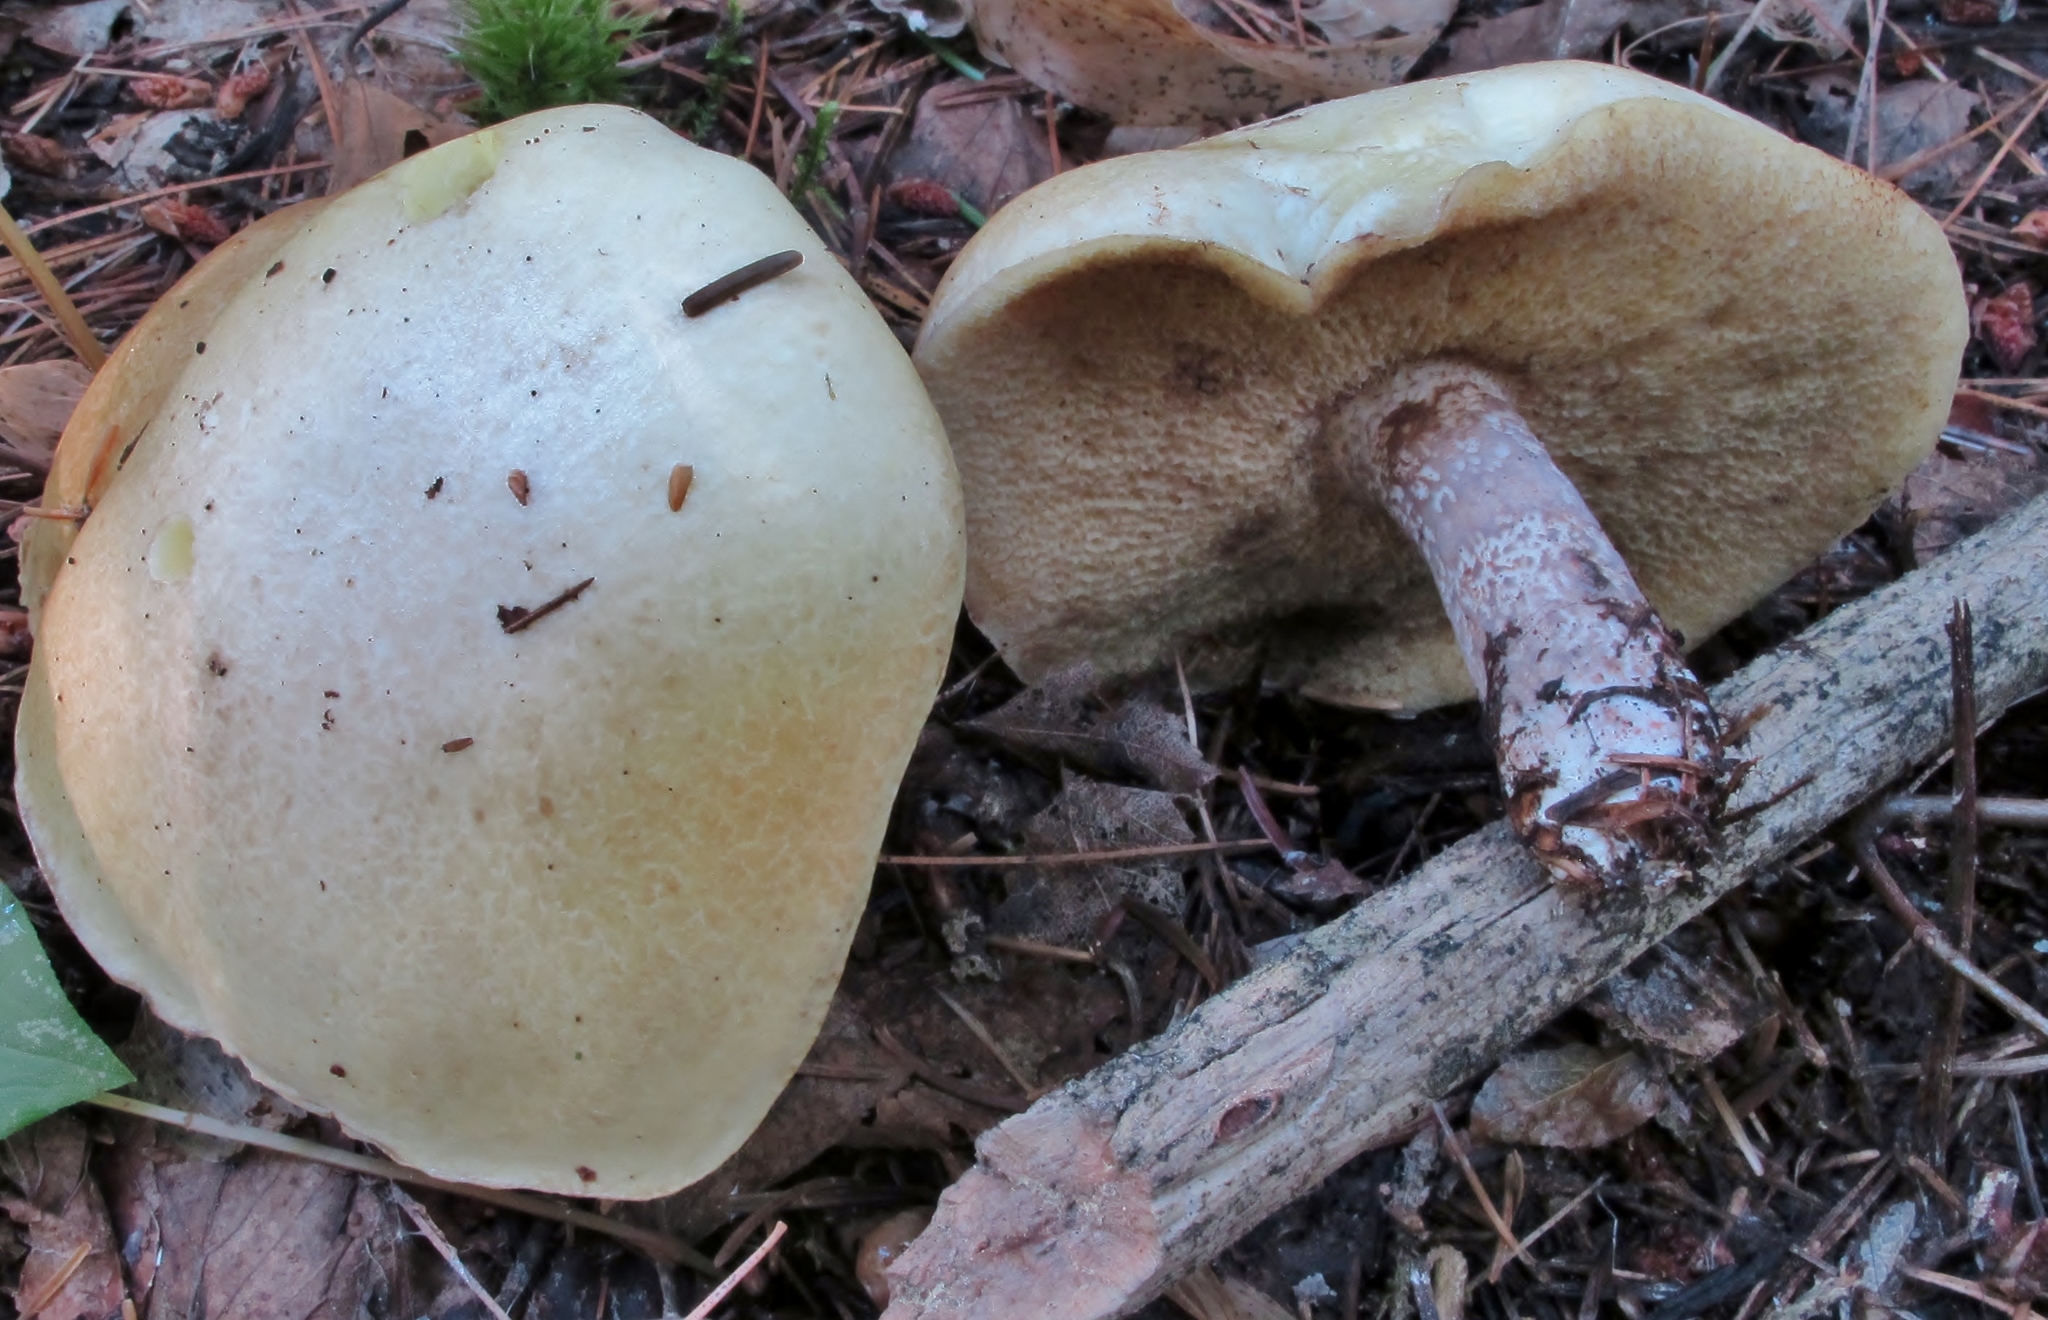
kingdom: Fungi
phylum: Basidiomycota
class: Agaricomycetes
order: Boletales
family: Suillaceae
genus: Suillus
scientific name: Suillus placidus
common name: Slippery white bolete
